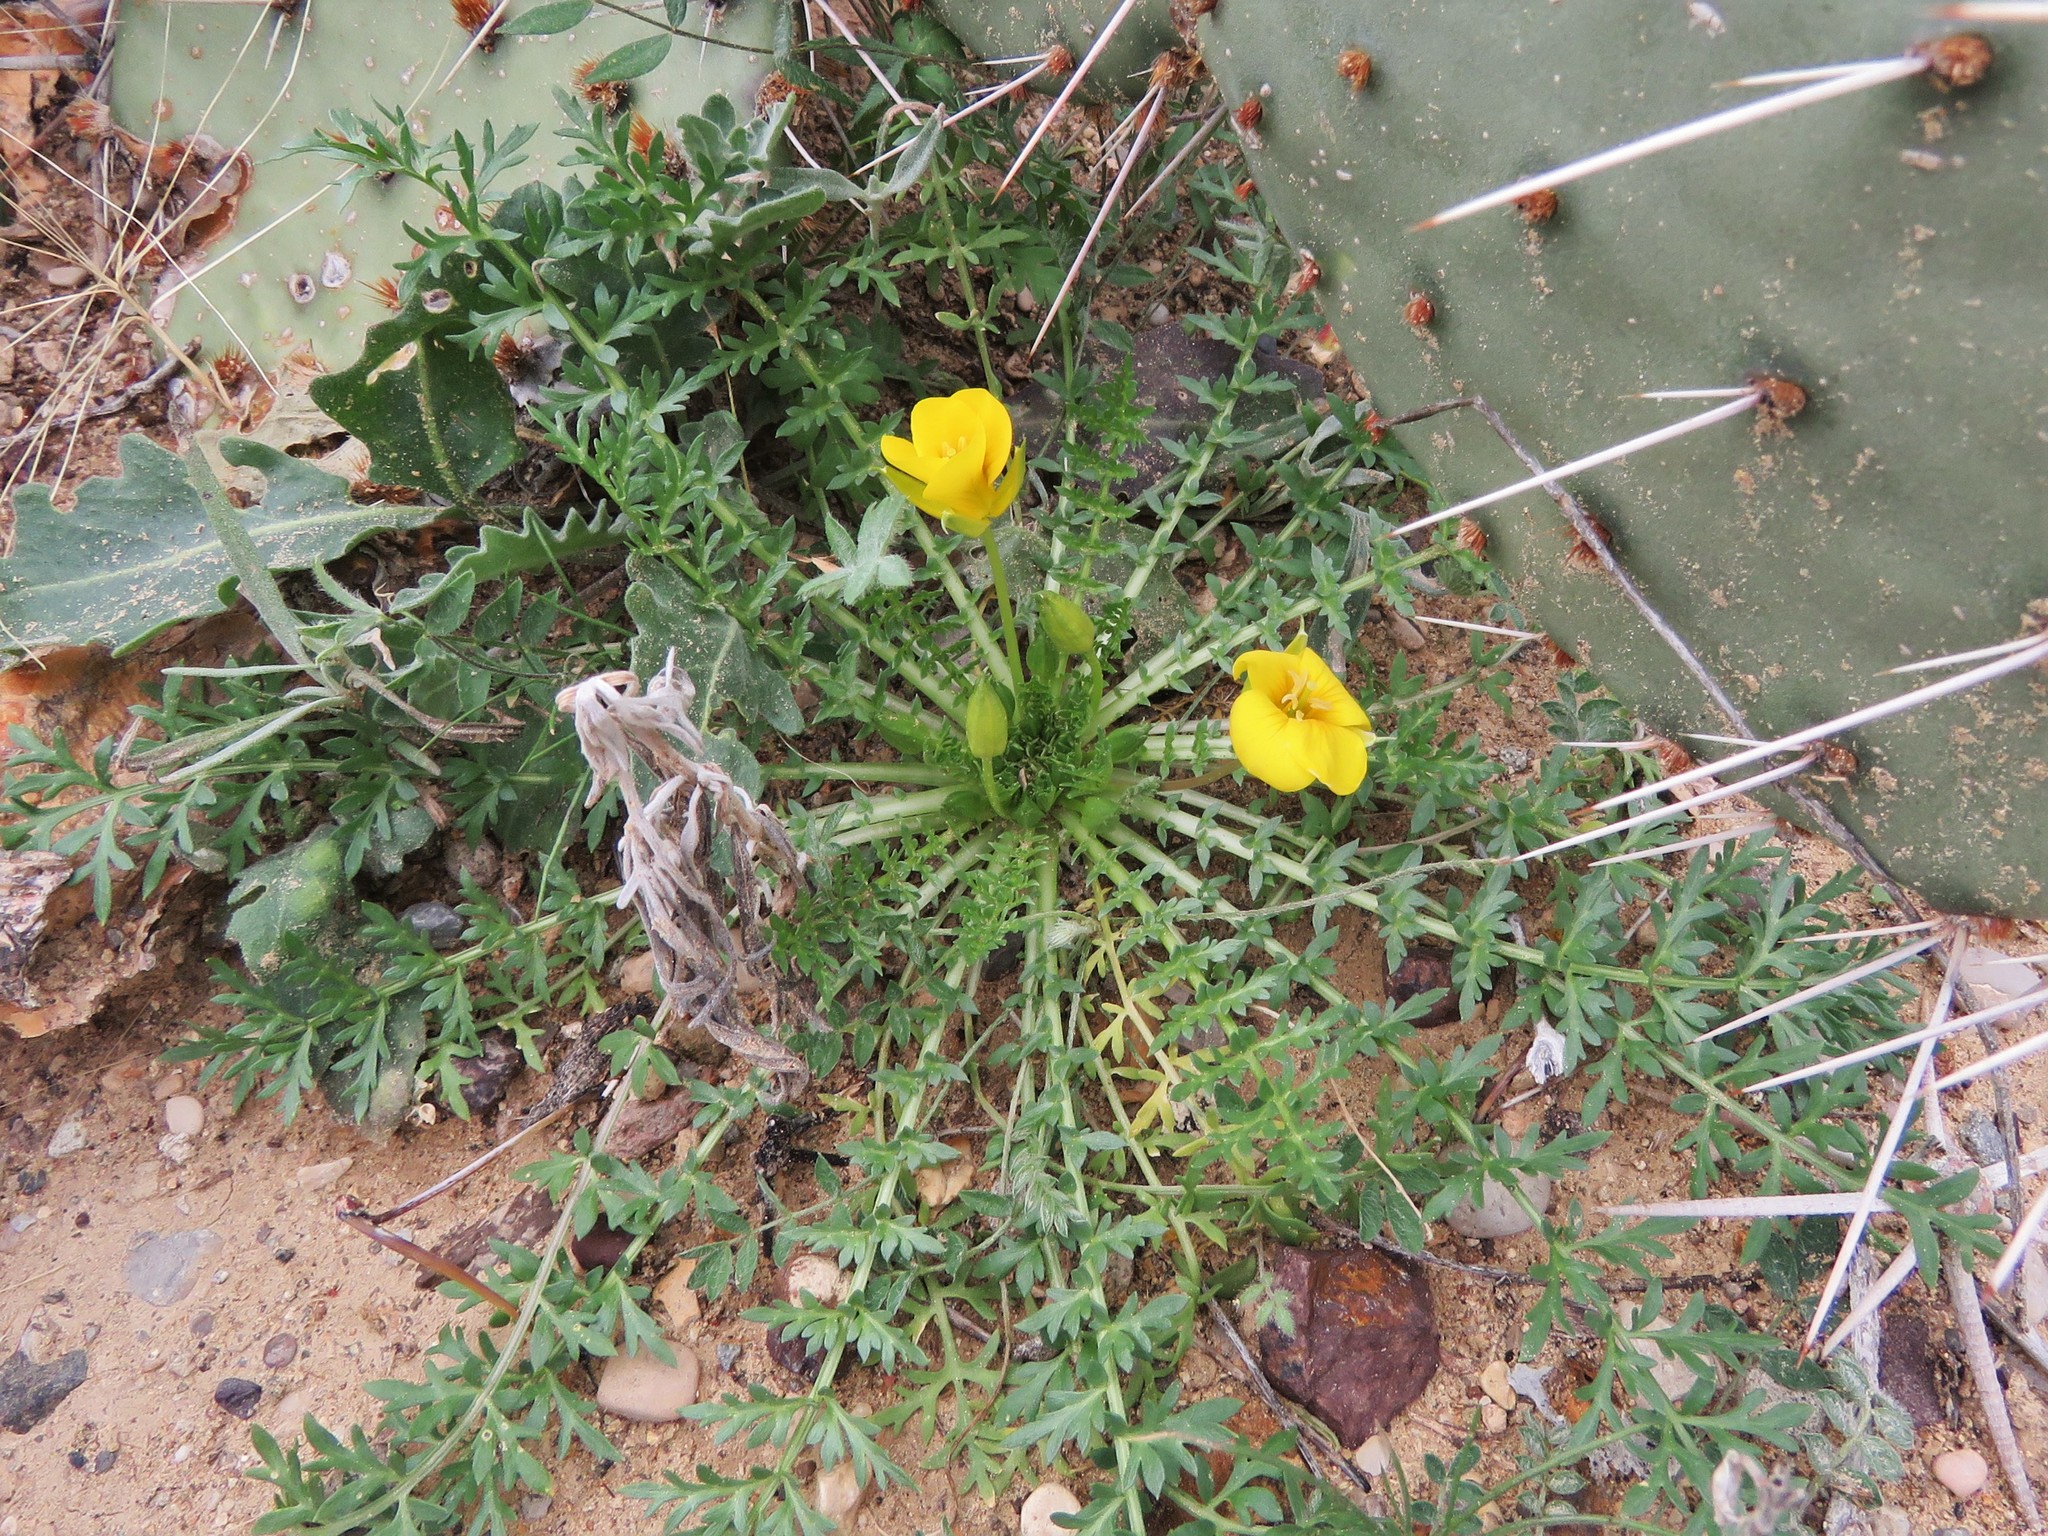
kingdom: Plantae
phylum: Tracheophyta
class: Magnoliopsida
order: Brassicales
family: Brassicaceae
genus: Selenia
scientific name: Selenia dissecta
